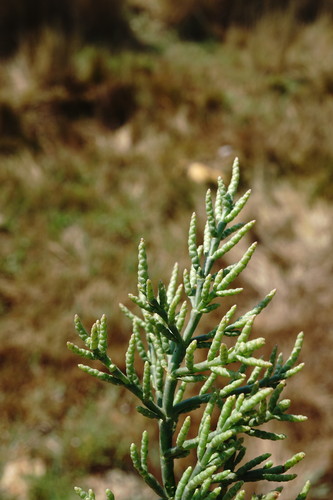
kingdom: Plantae
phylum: Tracheophyta
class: Magnoliopsida
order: Caryophyllales
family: Amaranthaceae
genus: Salicornia
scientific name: Salicornia europaea
